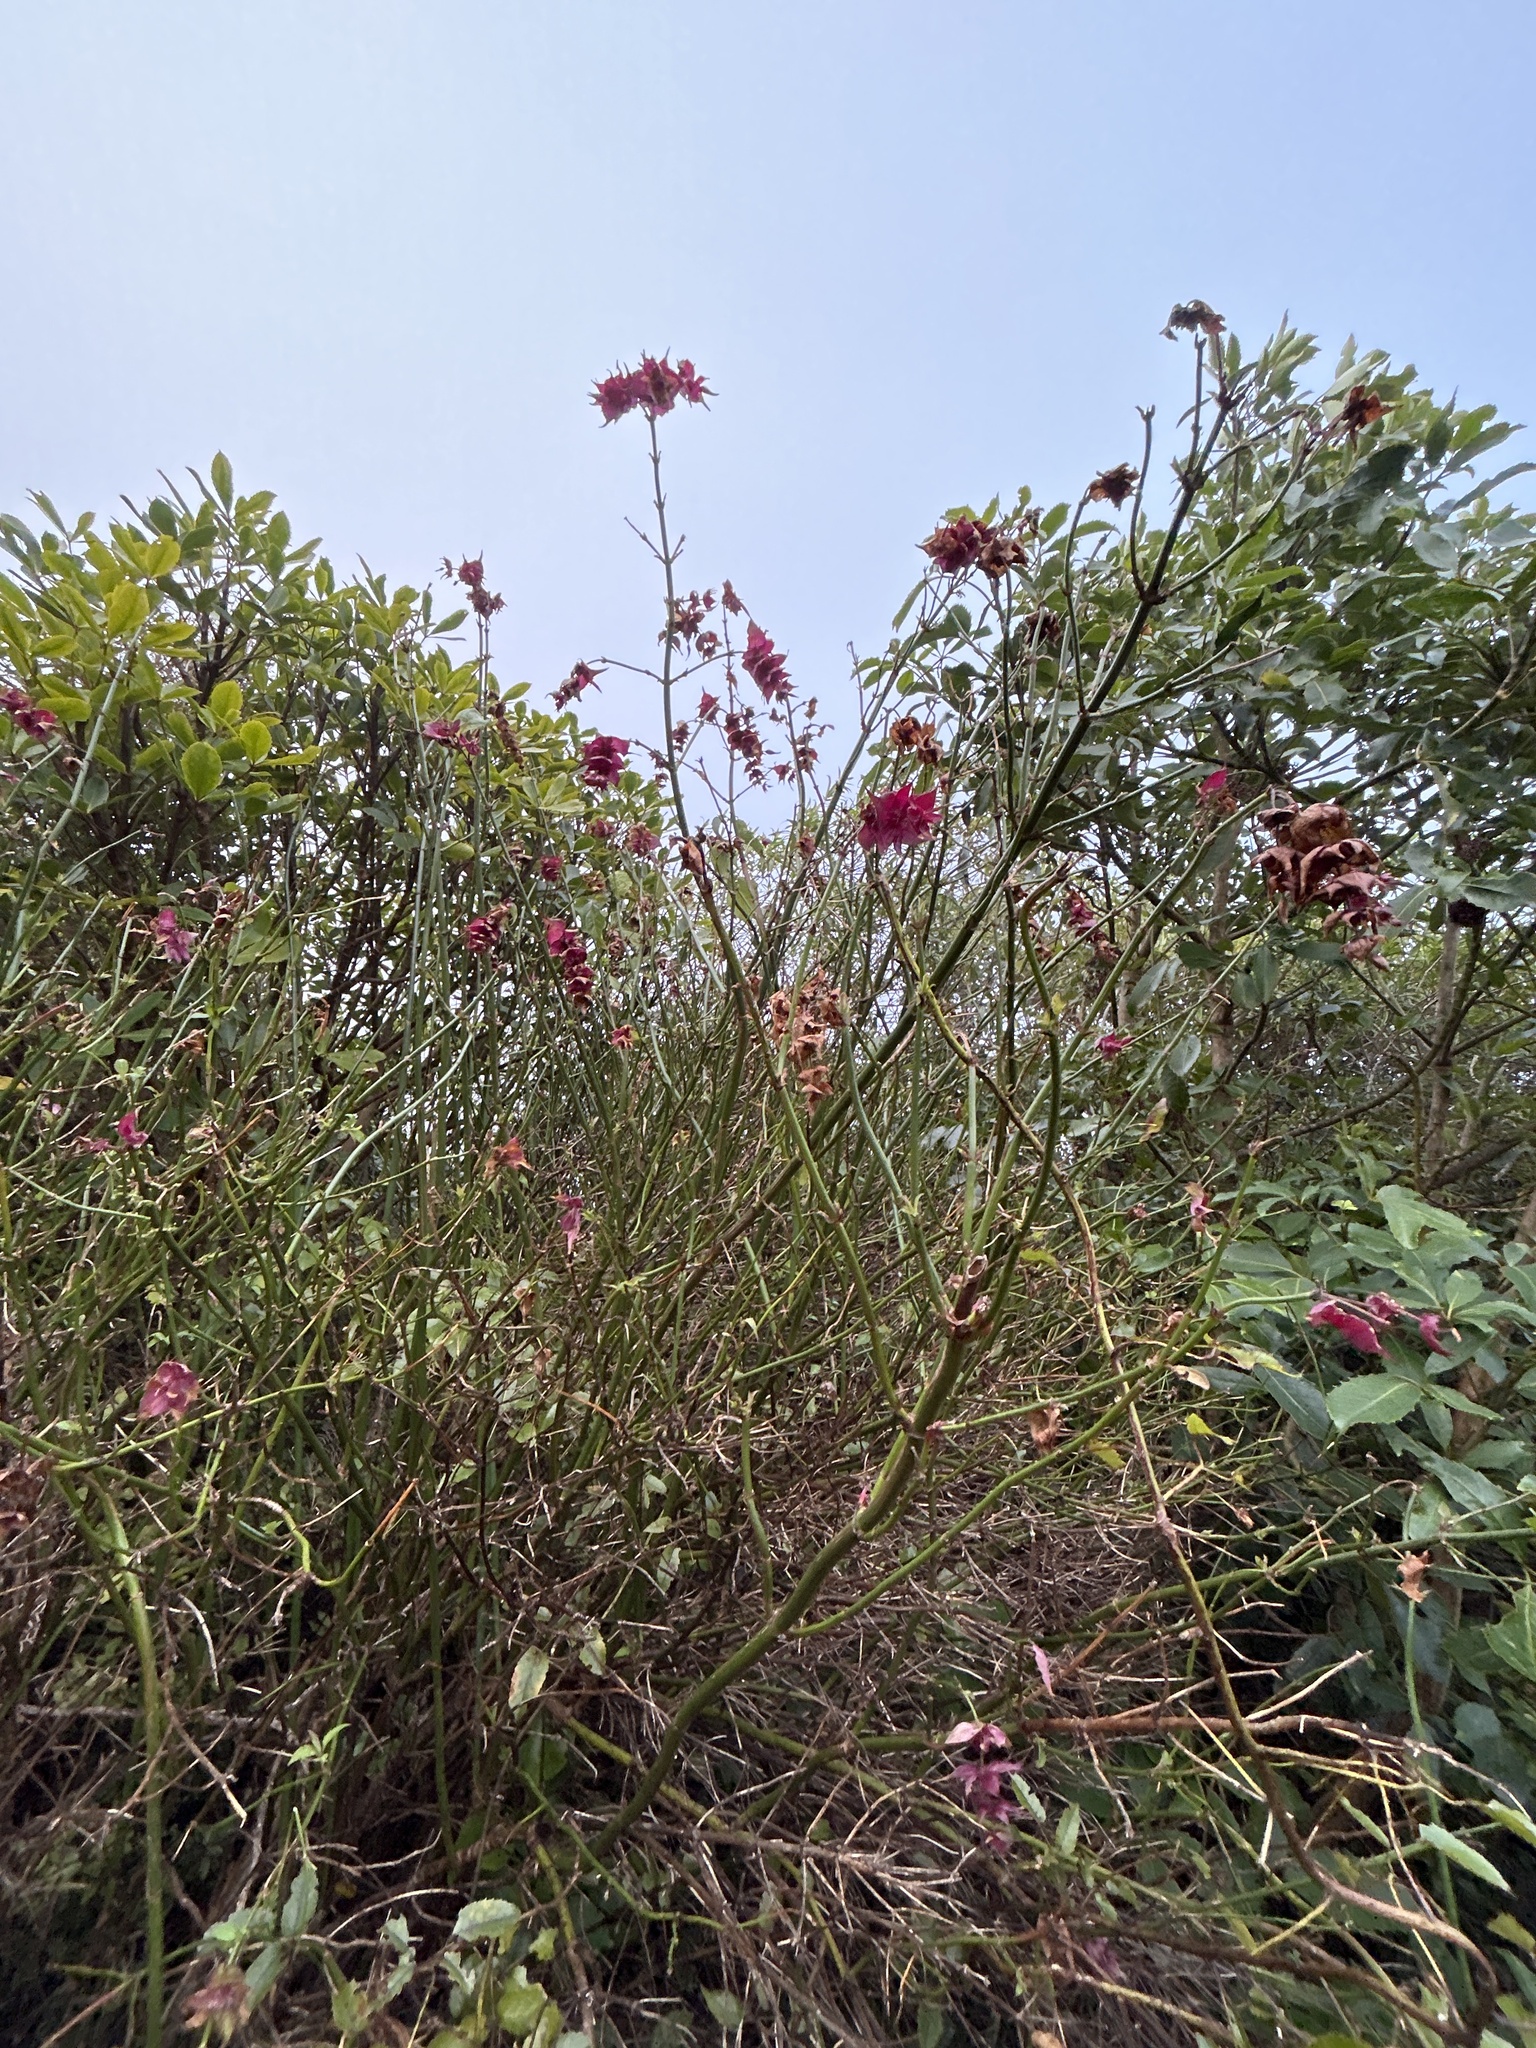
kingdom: Plantae
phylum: Tracheophyta
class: Magnoliopsida
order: Dipsacales
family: Caprifoliaceae
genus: Leycesteria
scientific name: Leycesteria formosa
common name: Himalayan honeysuckle
